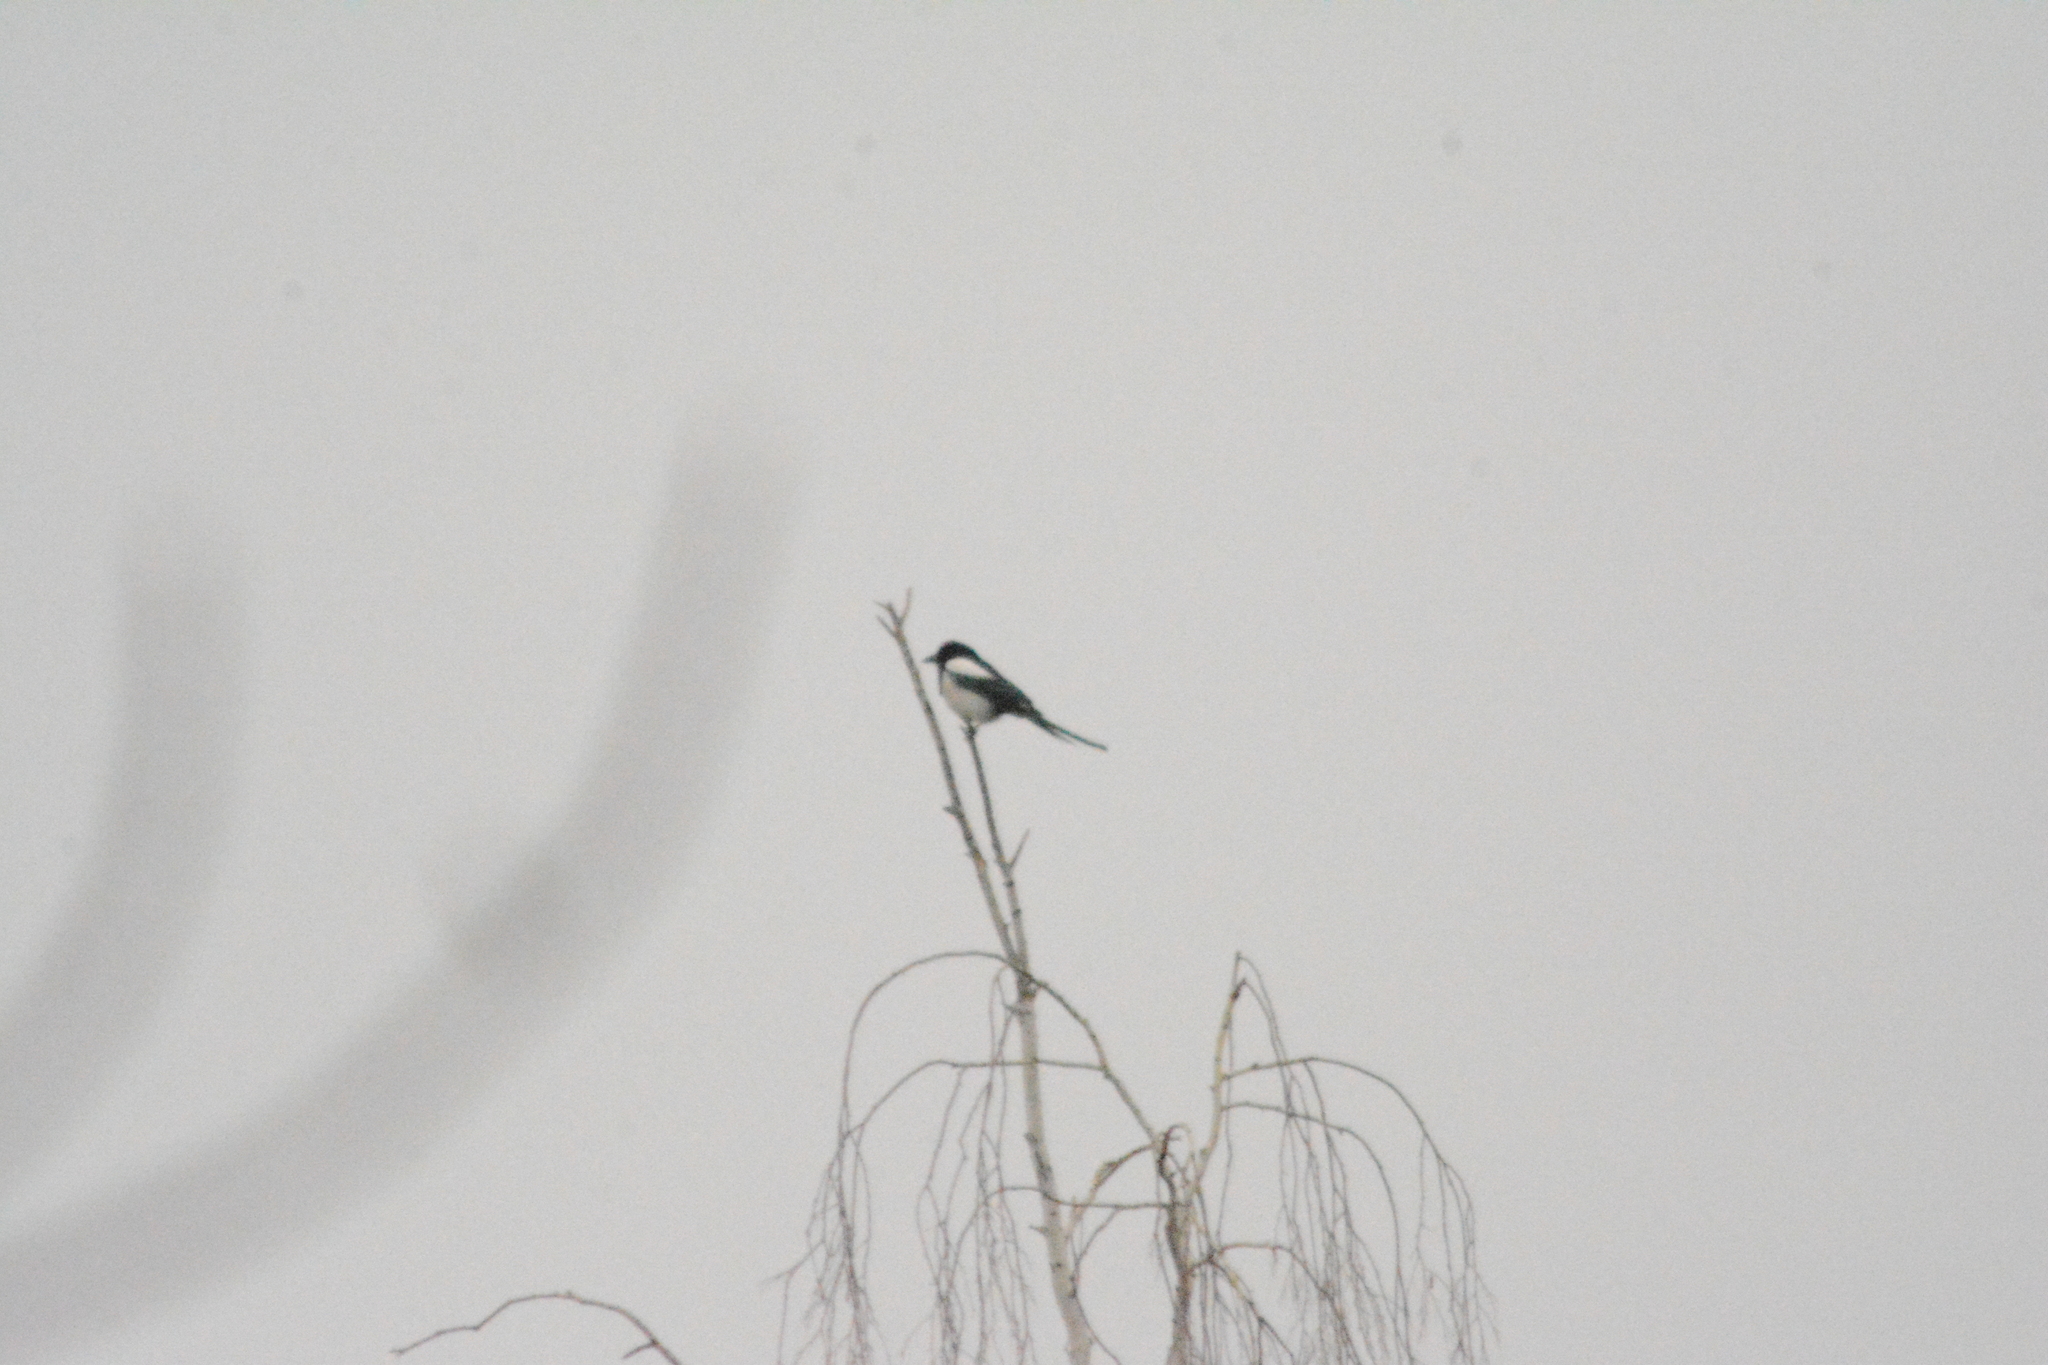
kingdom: Animalia
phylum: Chordata
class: Aves
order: Passeriformes
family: Corvidae
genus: Pica
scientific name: Pica pica
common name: Eurasian magpie
